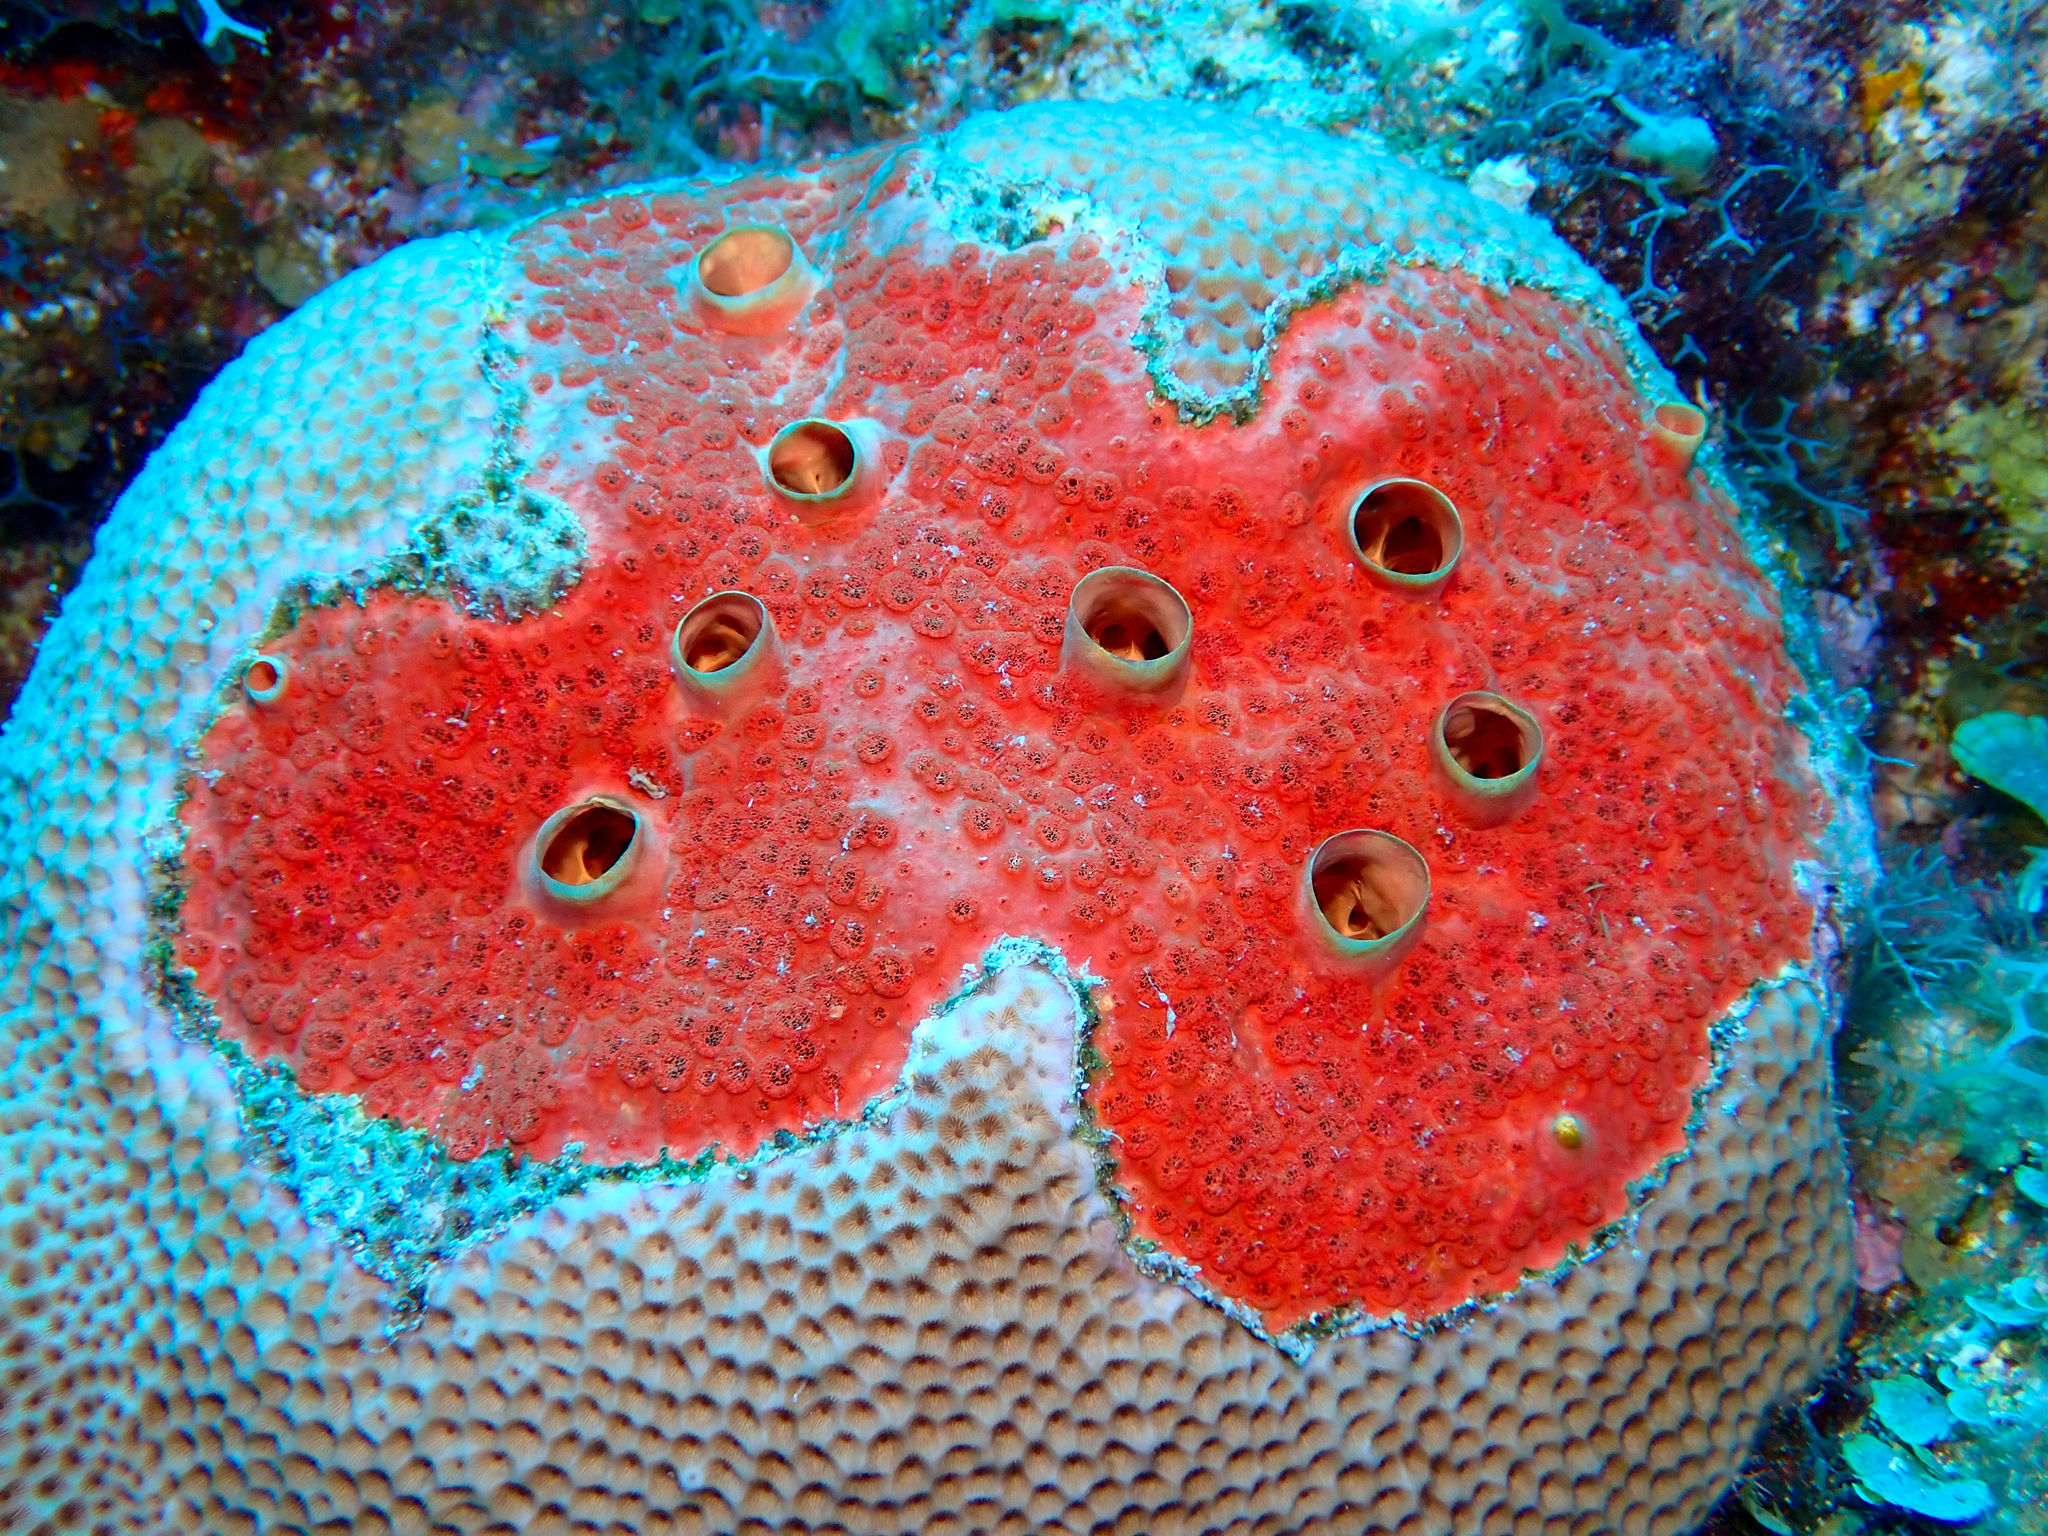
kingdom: Animalia
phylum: Porifera
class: Demospongiae
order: Clionaida
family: Clionaidae
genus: Cliothosa
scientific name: Cliothosa delitrix
